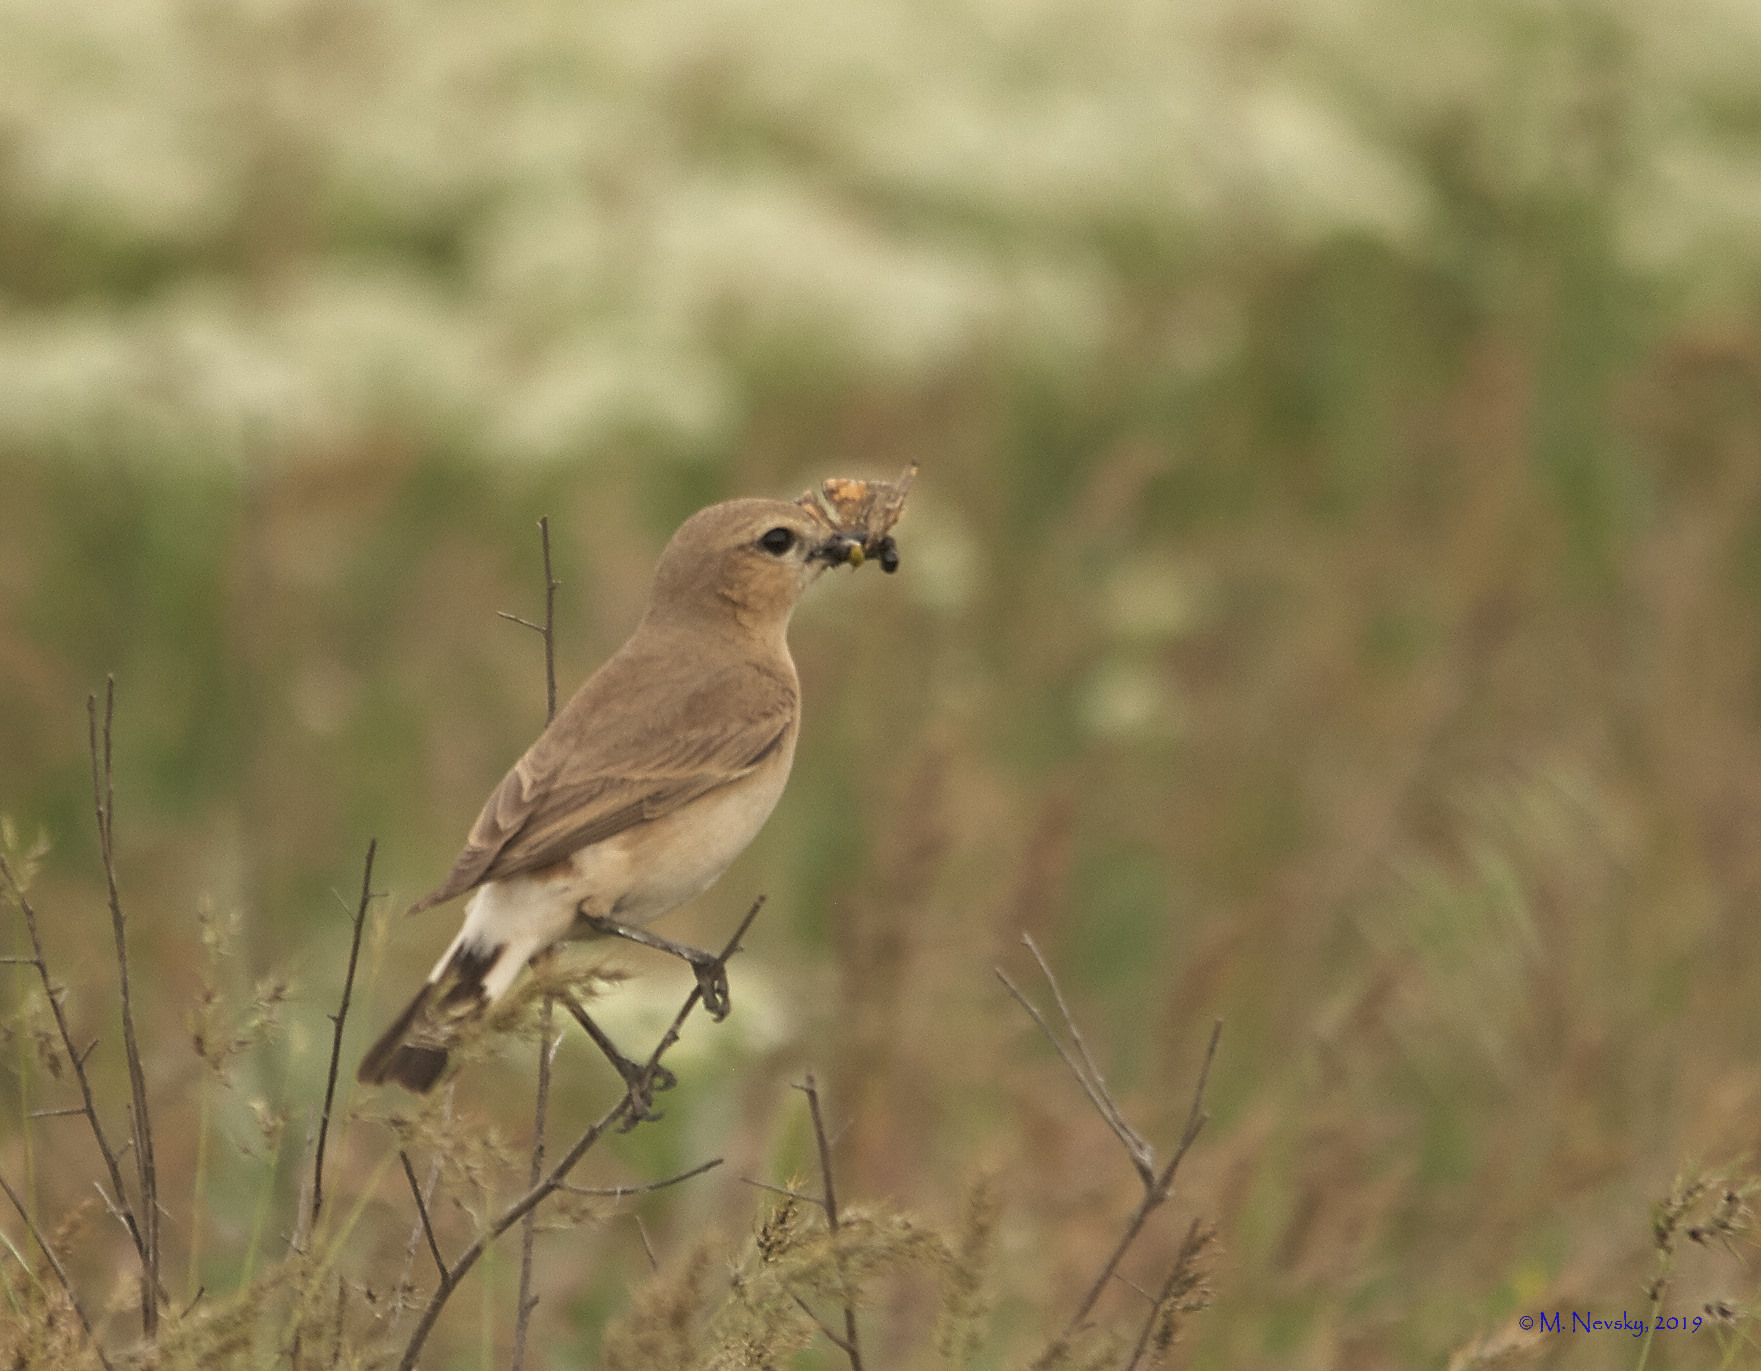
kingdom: Animalia
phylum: Chordata
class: Aves
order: Passeriformes
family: Muscicapidae
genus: Oenanthe
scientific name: Oenanthe isabellina
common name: Isabelline wheatear
